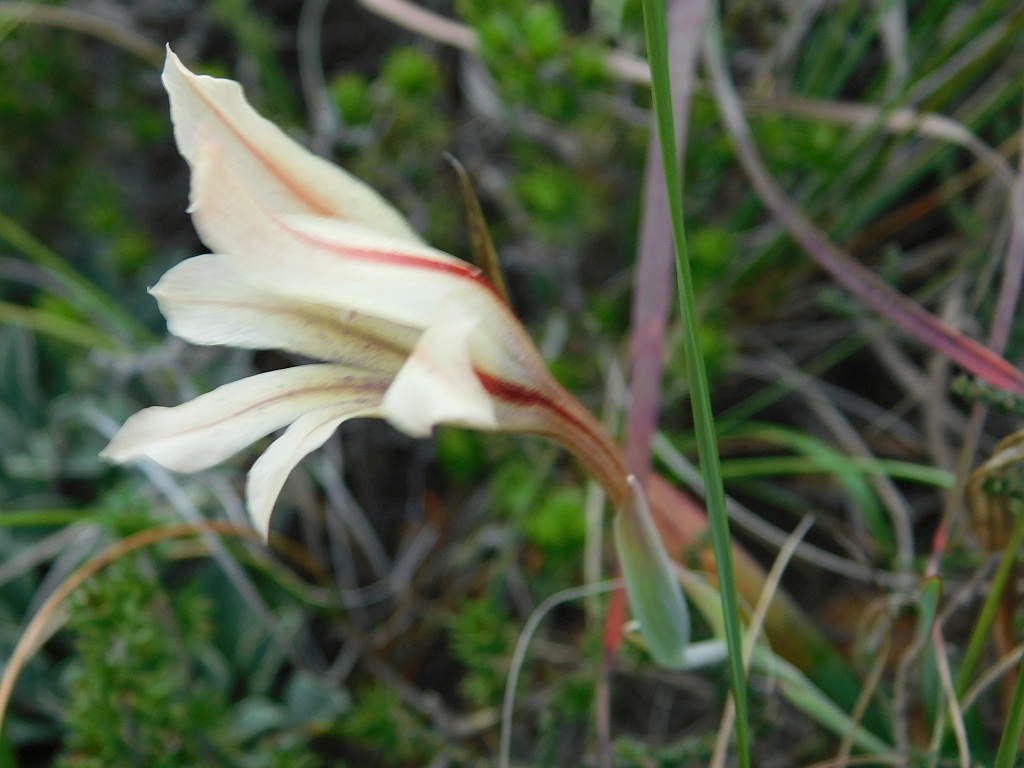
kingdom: Plantae
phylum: Tracheophyta
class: Liliopsida
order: Asparagales
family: Iridaceae
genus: Gladiolus
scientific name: Gladiolus floribundus
